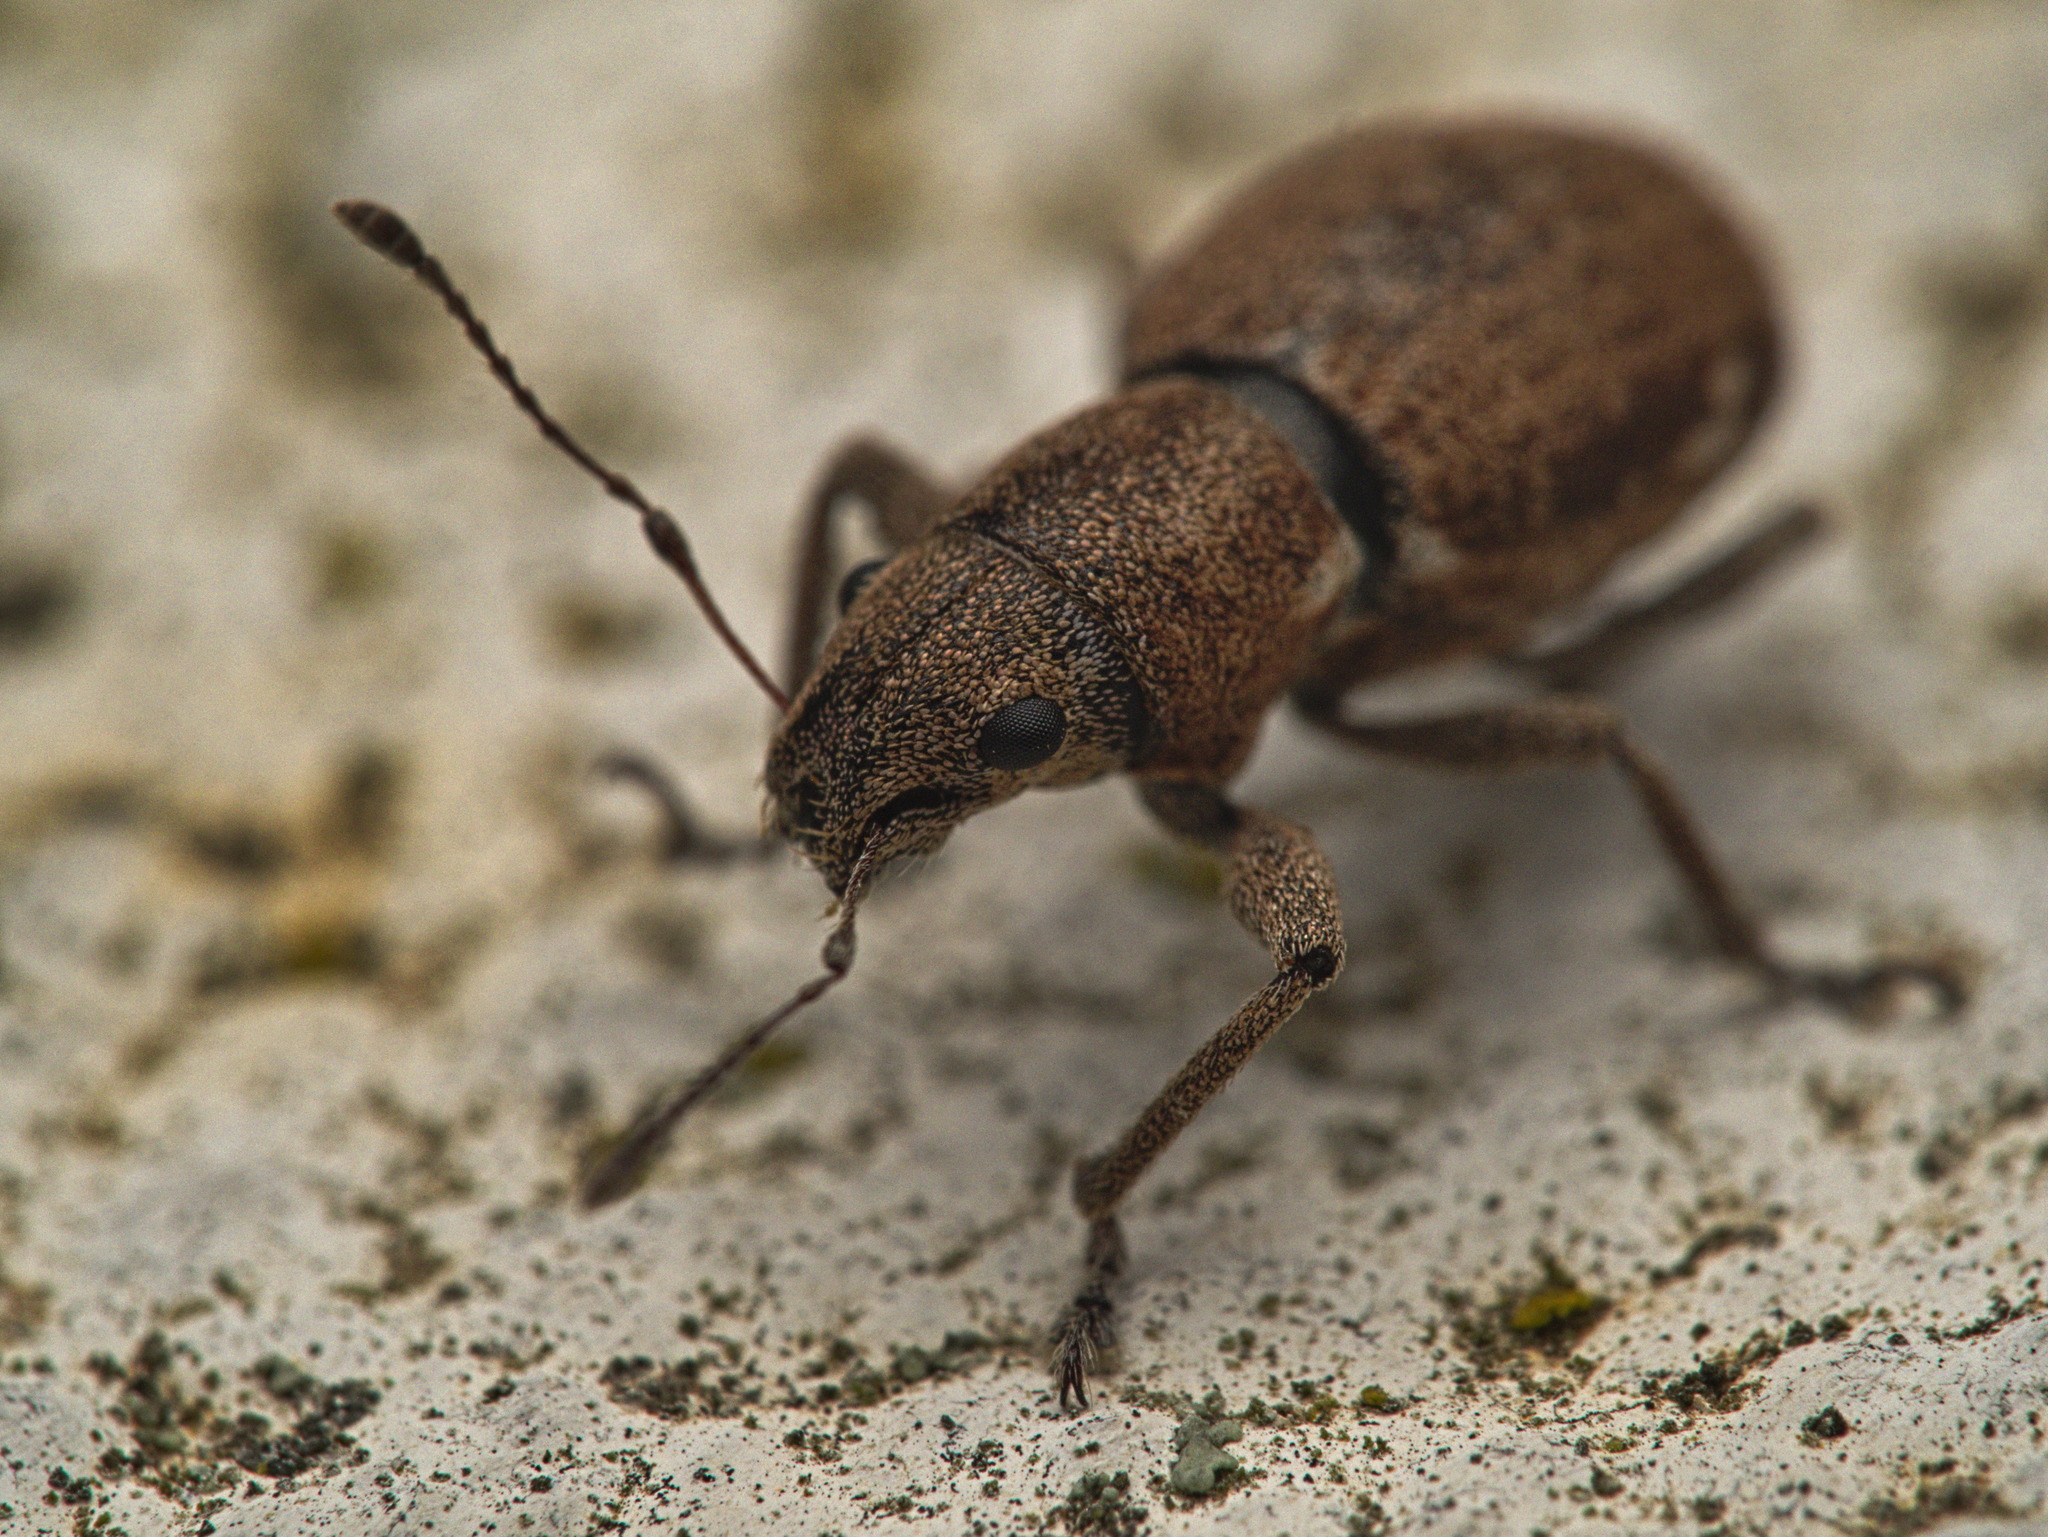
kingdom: Animalia
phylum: Arthropoda
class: Insecta
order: Coleoptera
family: Curculionidae
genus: Naupactus
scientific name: Naupactus cervinus
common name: Fuller rose beetle
